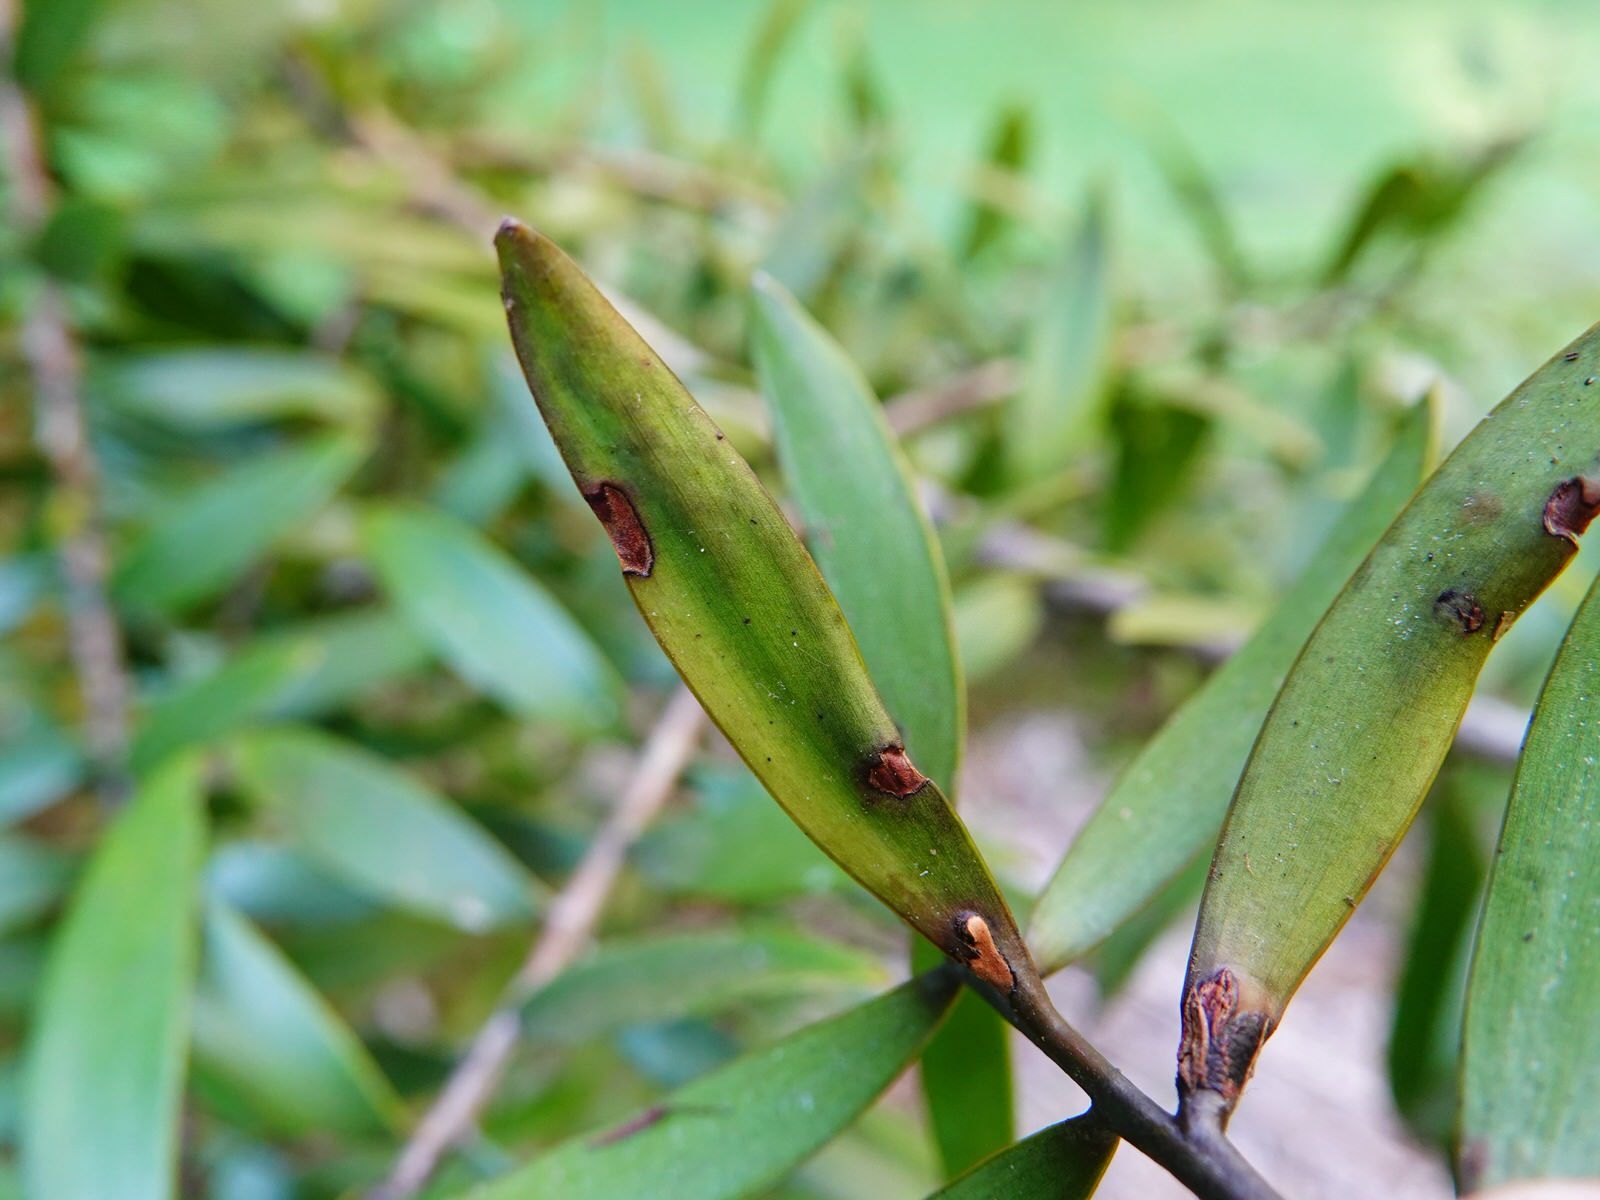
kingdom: Animalia
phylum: Arthropoda
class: Insecta
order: Lepidoptera
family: Gracillariidae
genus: Acrocercops
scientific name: Acrocercops leucotoma
